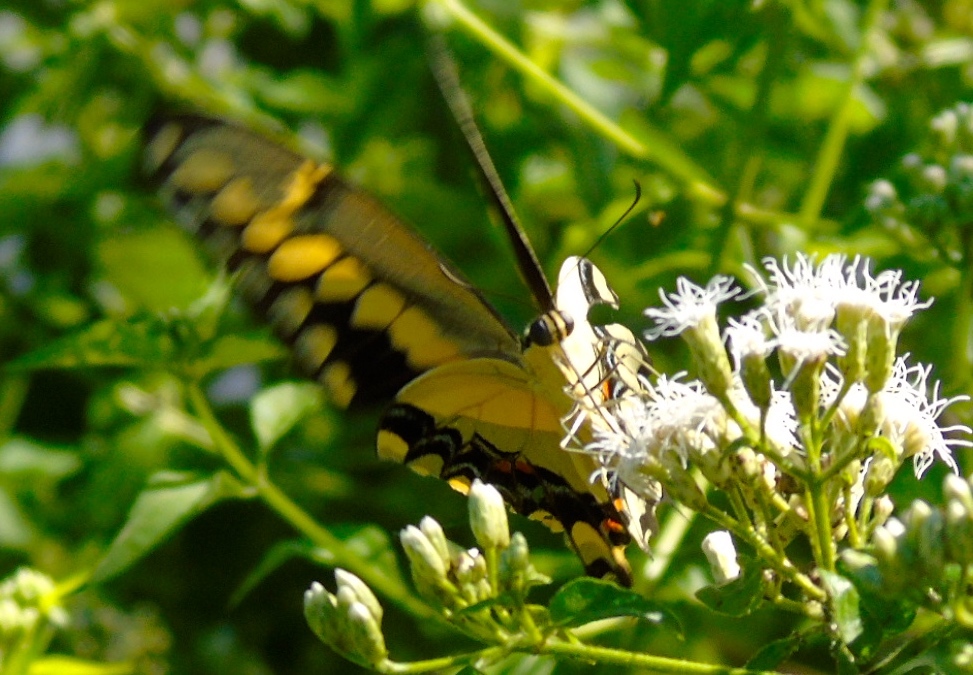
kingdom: Animalia
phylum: Arthropoda
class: Insecta
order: Lepidoptera
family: Papilionidae
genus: Papilio
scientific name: Papilio rumiko
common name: Western giant swallowtail
